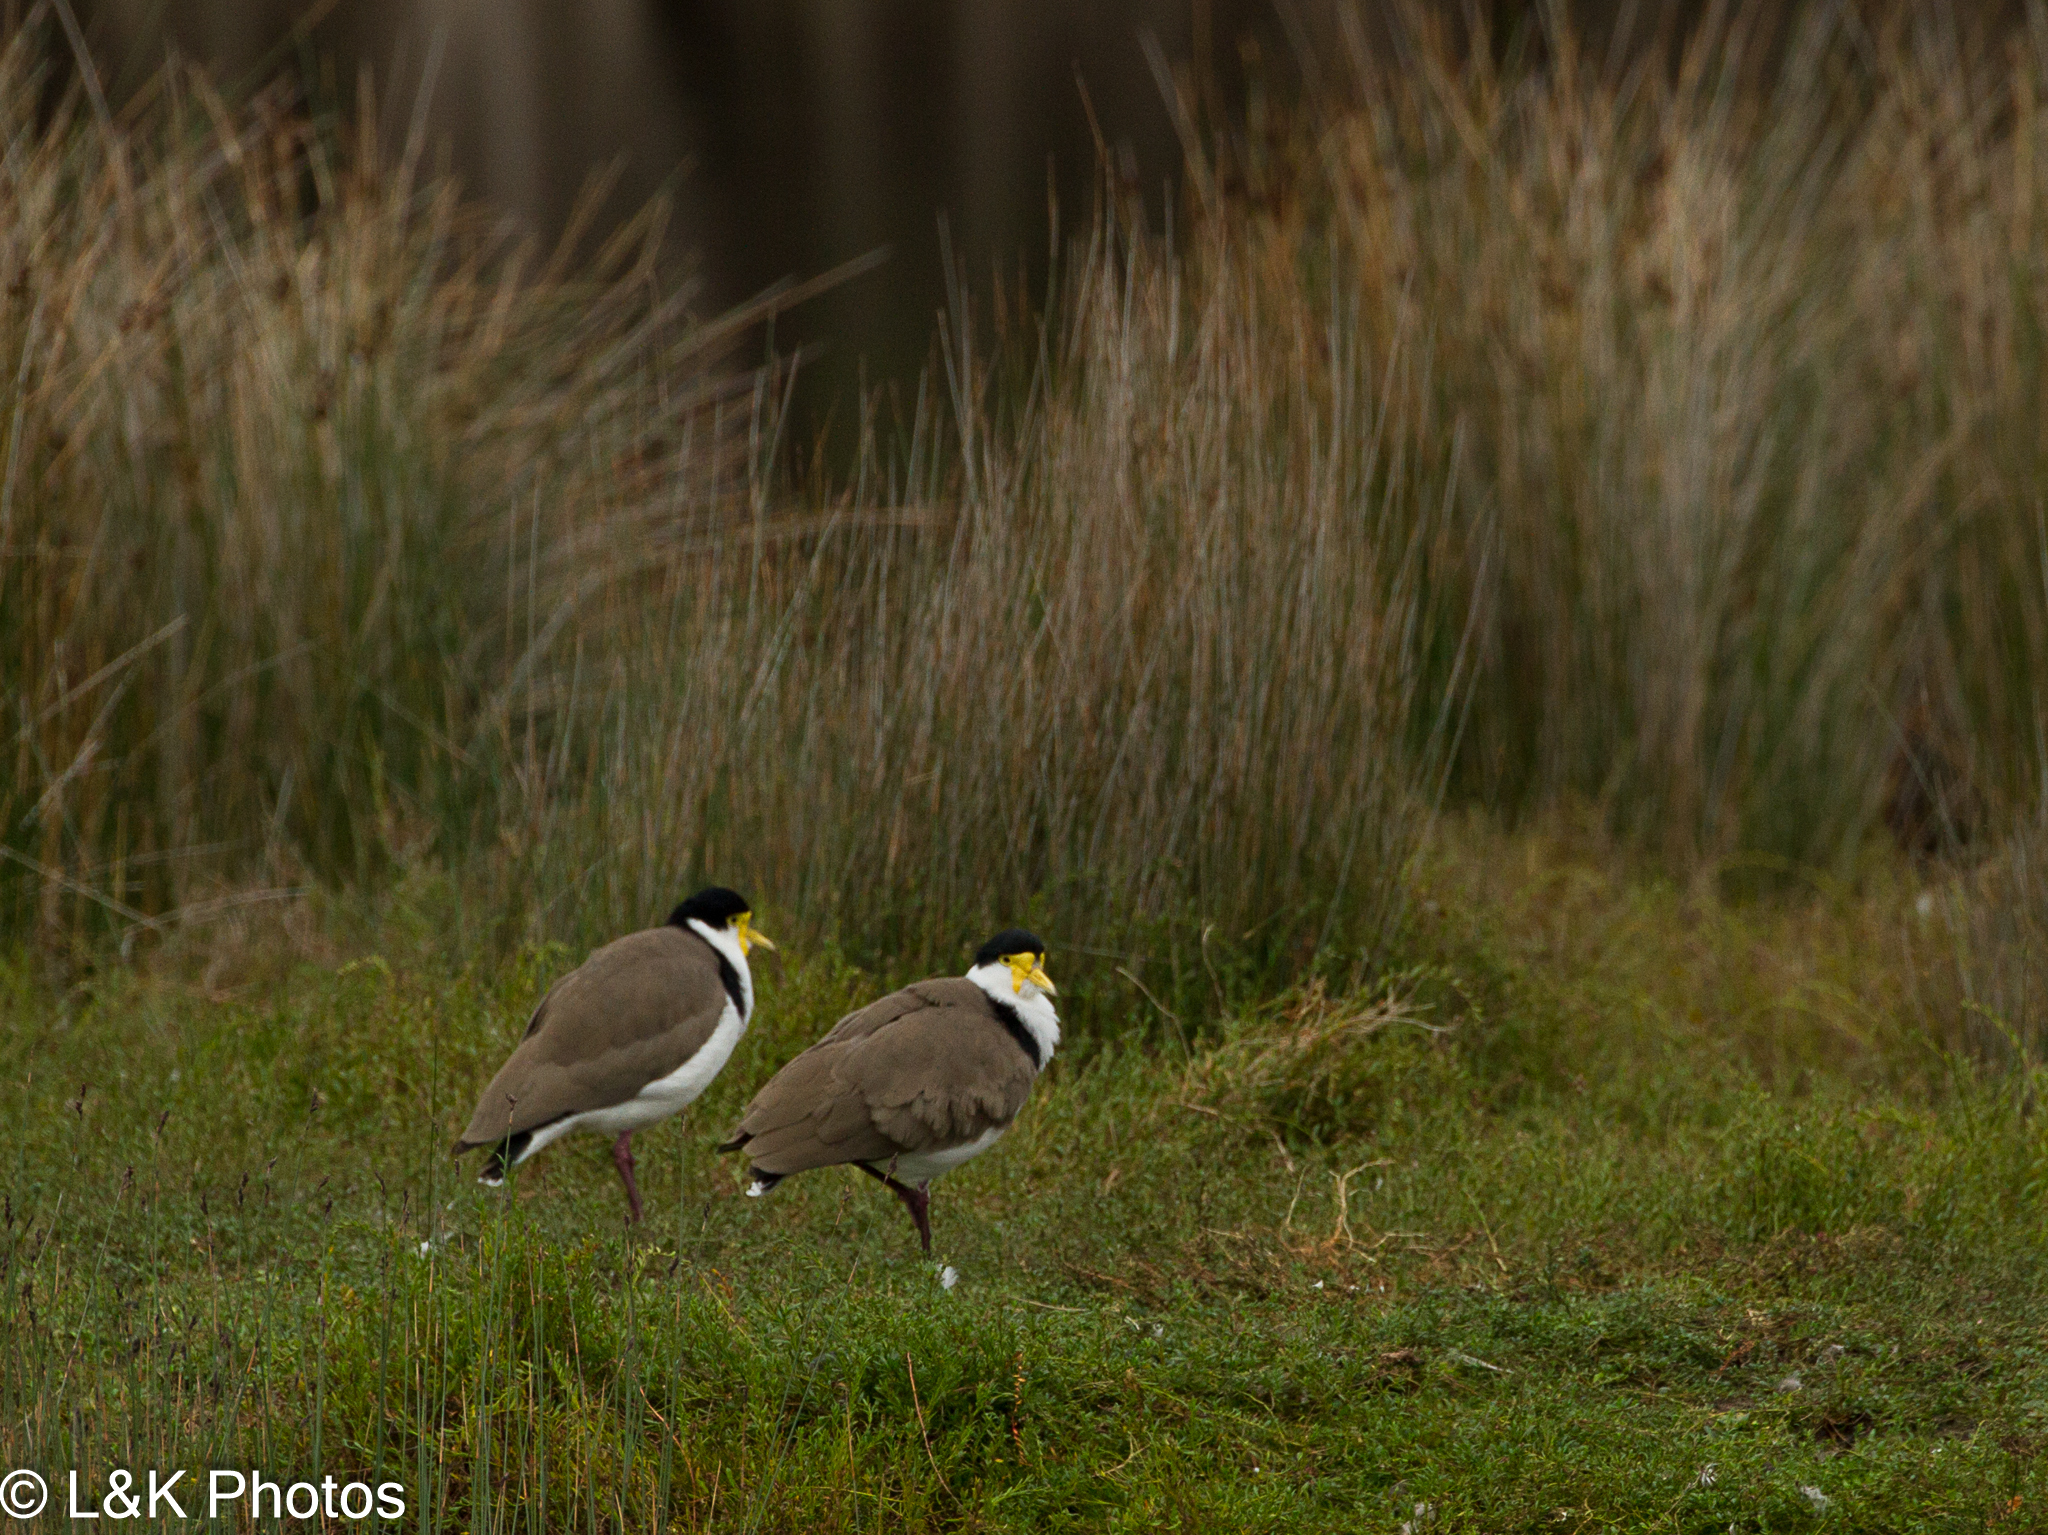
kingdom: Animalia
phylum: Chordata
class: Aves
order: Charadriiformes
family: Charadriidae
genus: Vanellus
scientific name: Vanellus miles
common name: Masked lapwing
